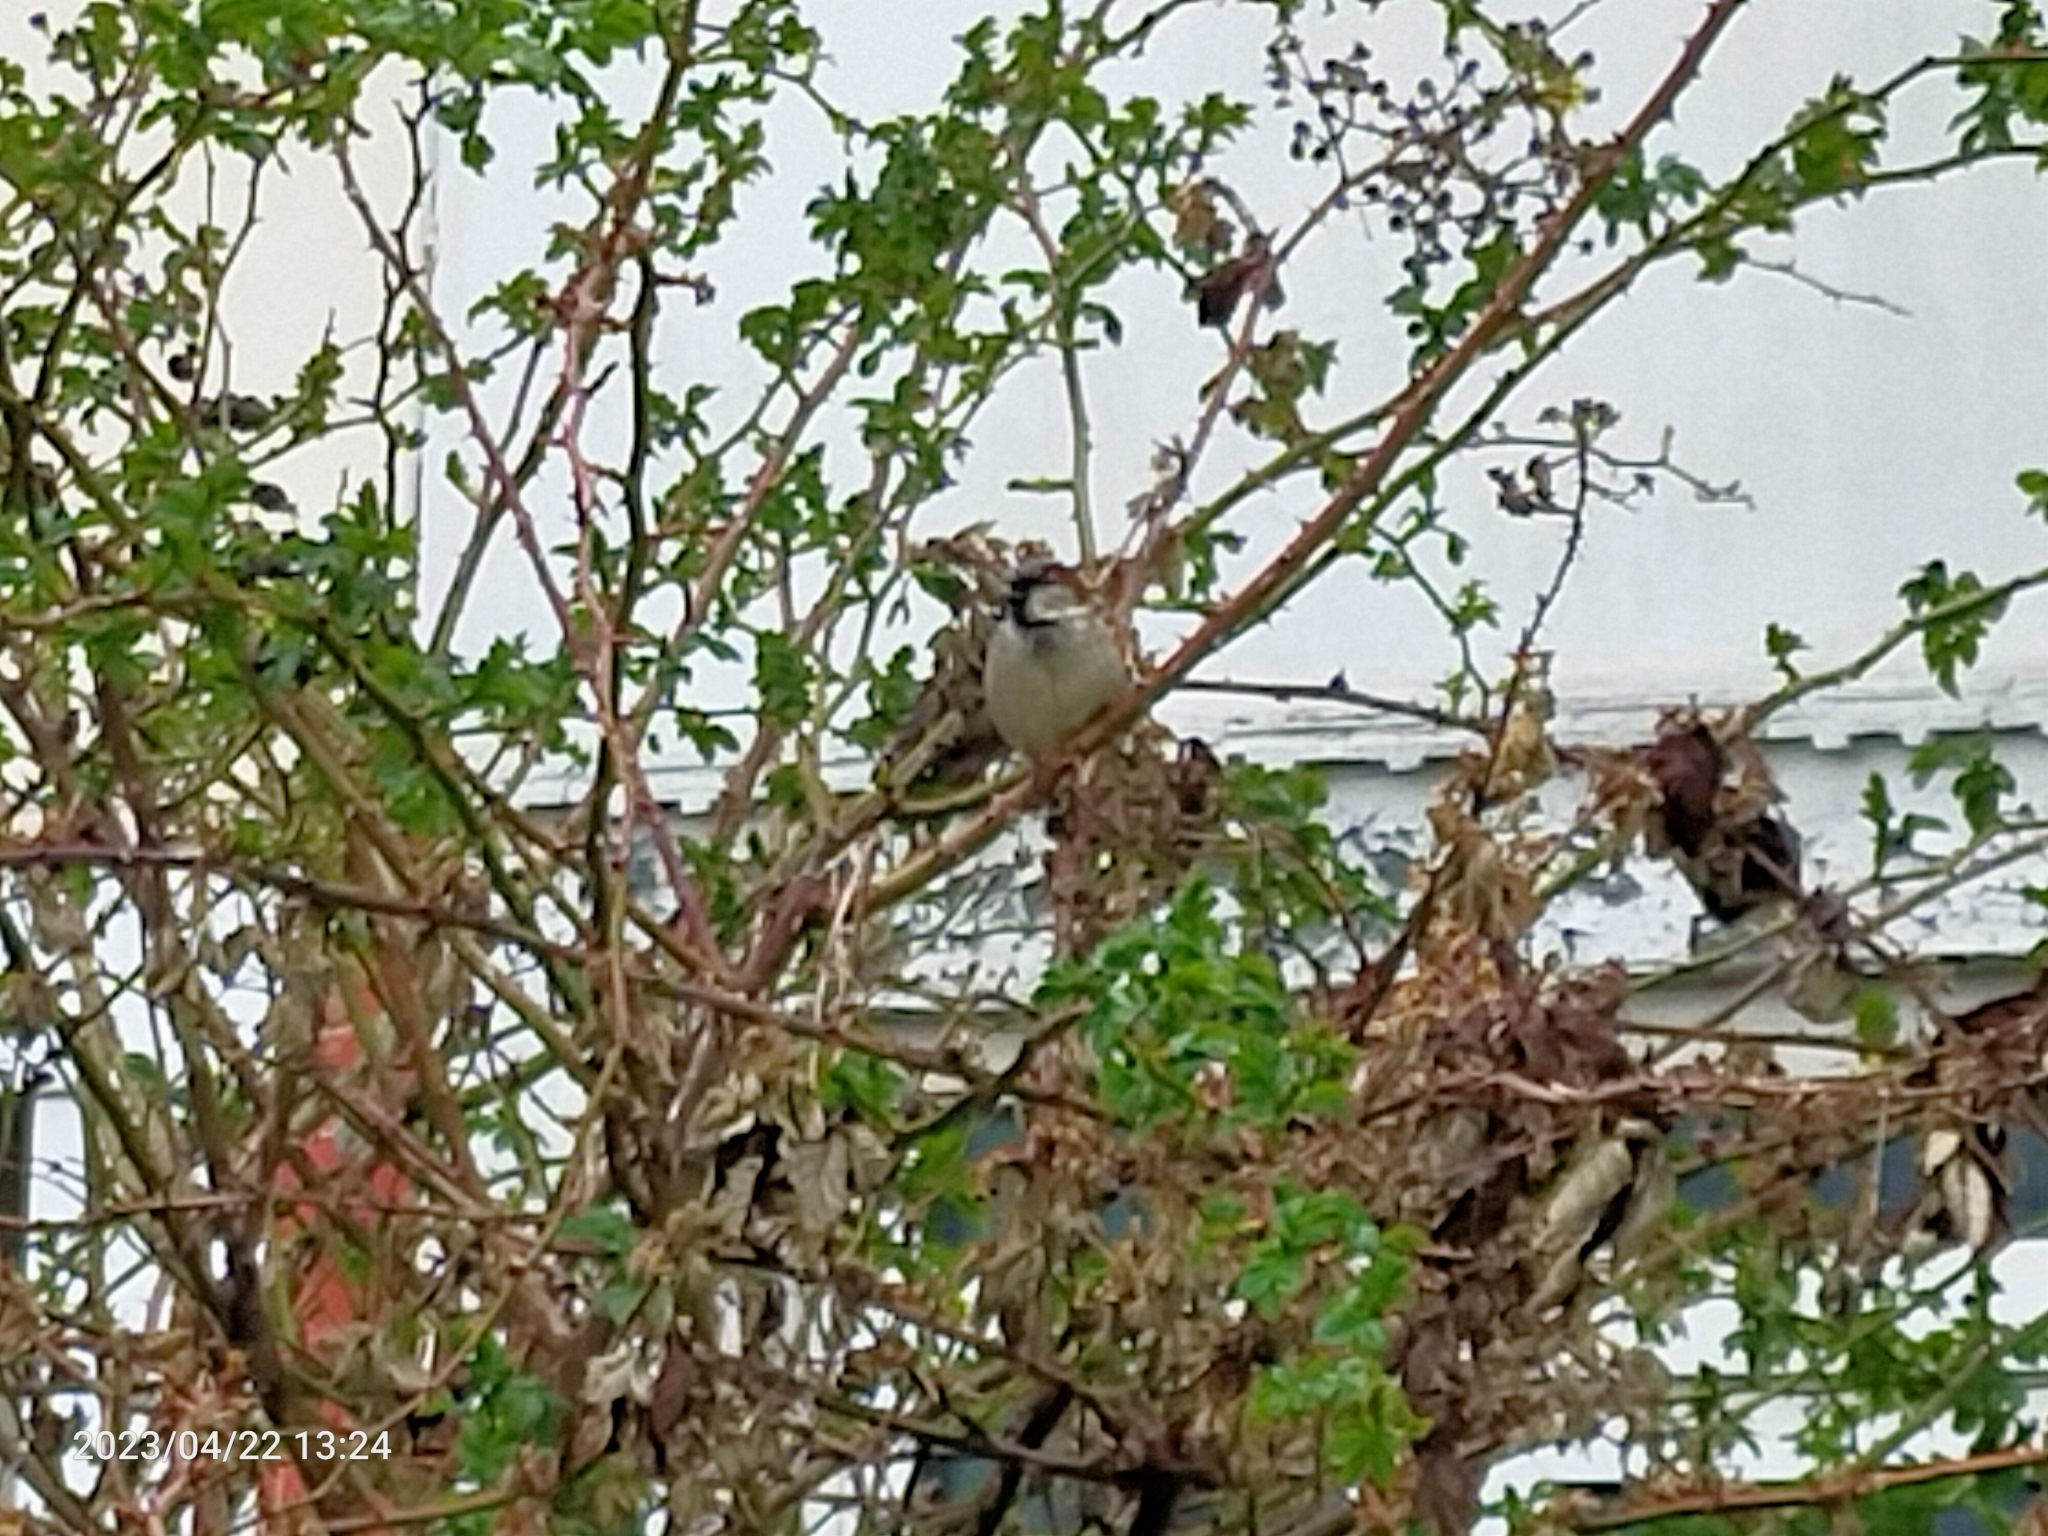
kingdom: Animalia
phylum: Chordata
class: Aves
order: Passeriformes
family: Passeridae
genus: Passer
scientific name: Passer domesticus
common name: House sparrow
